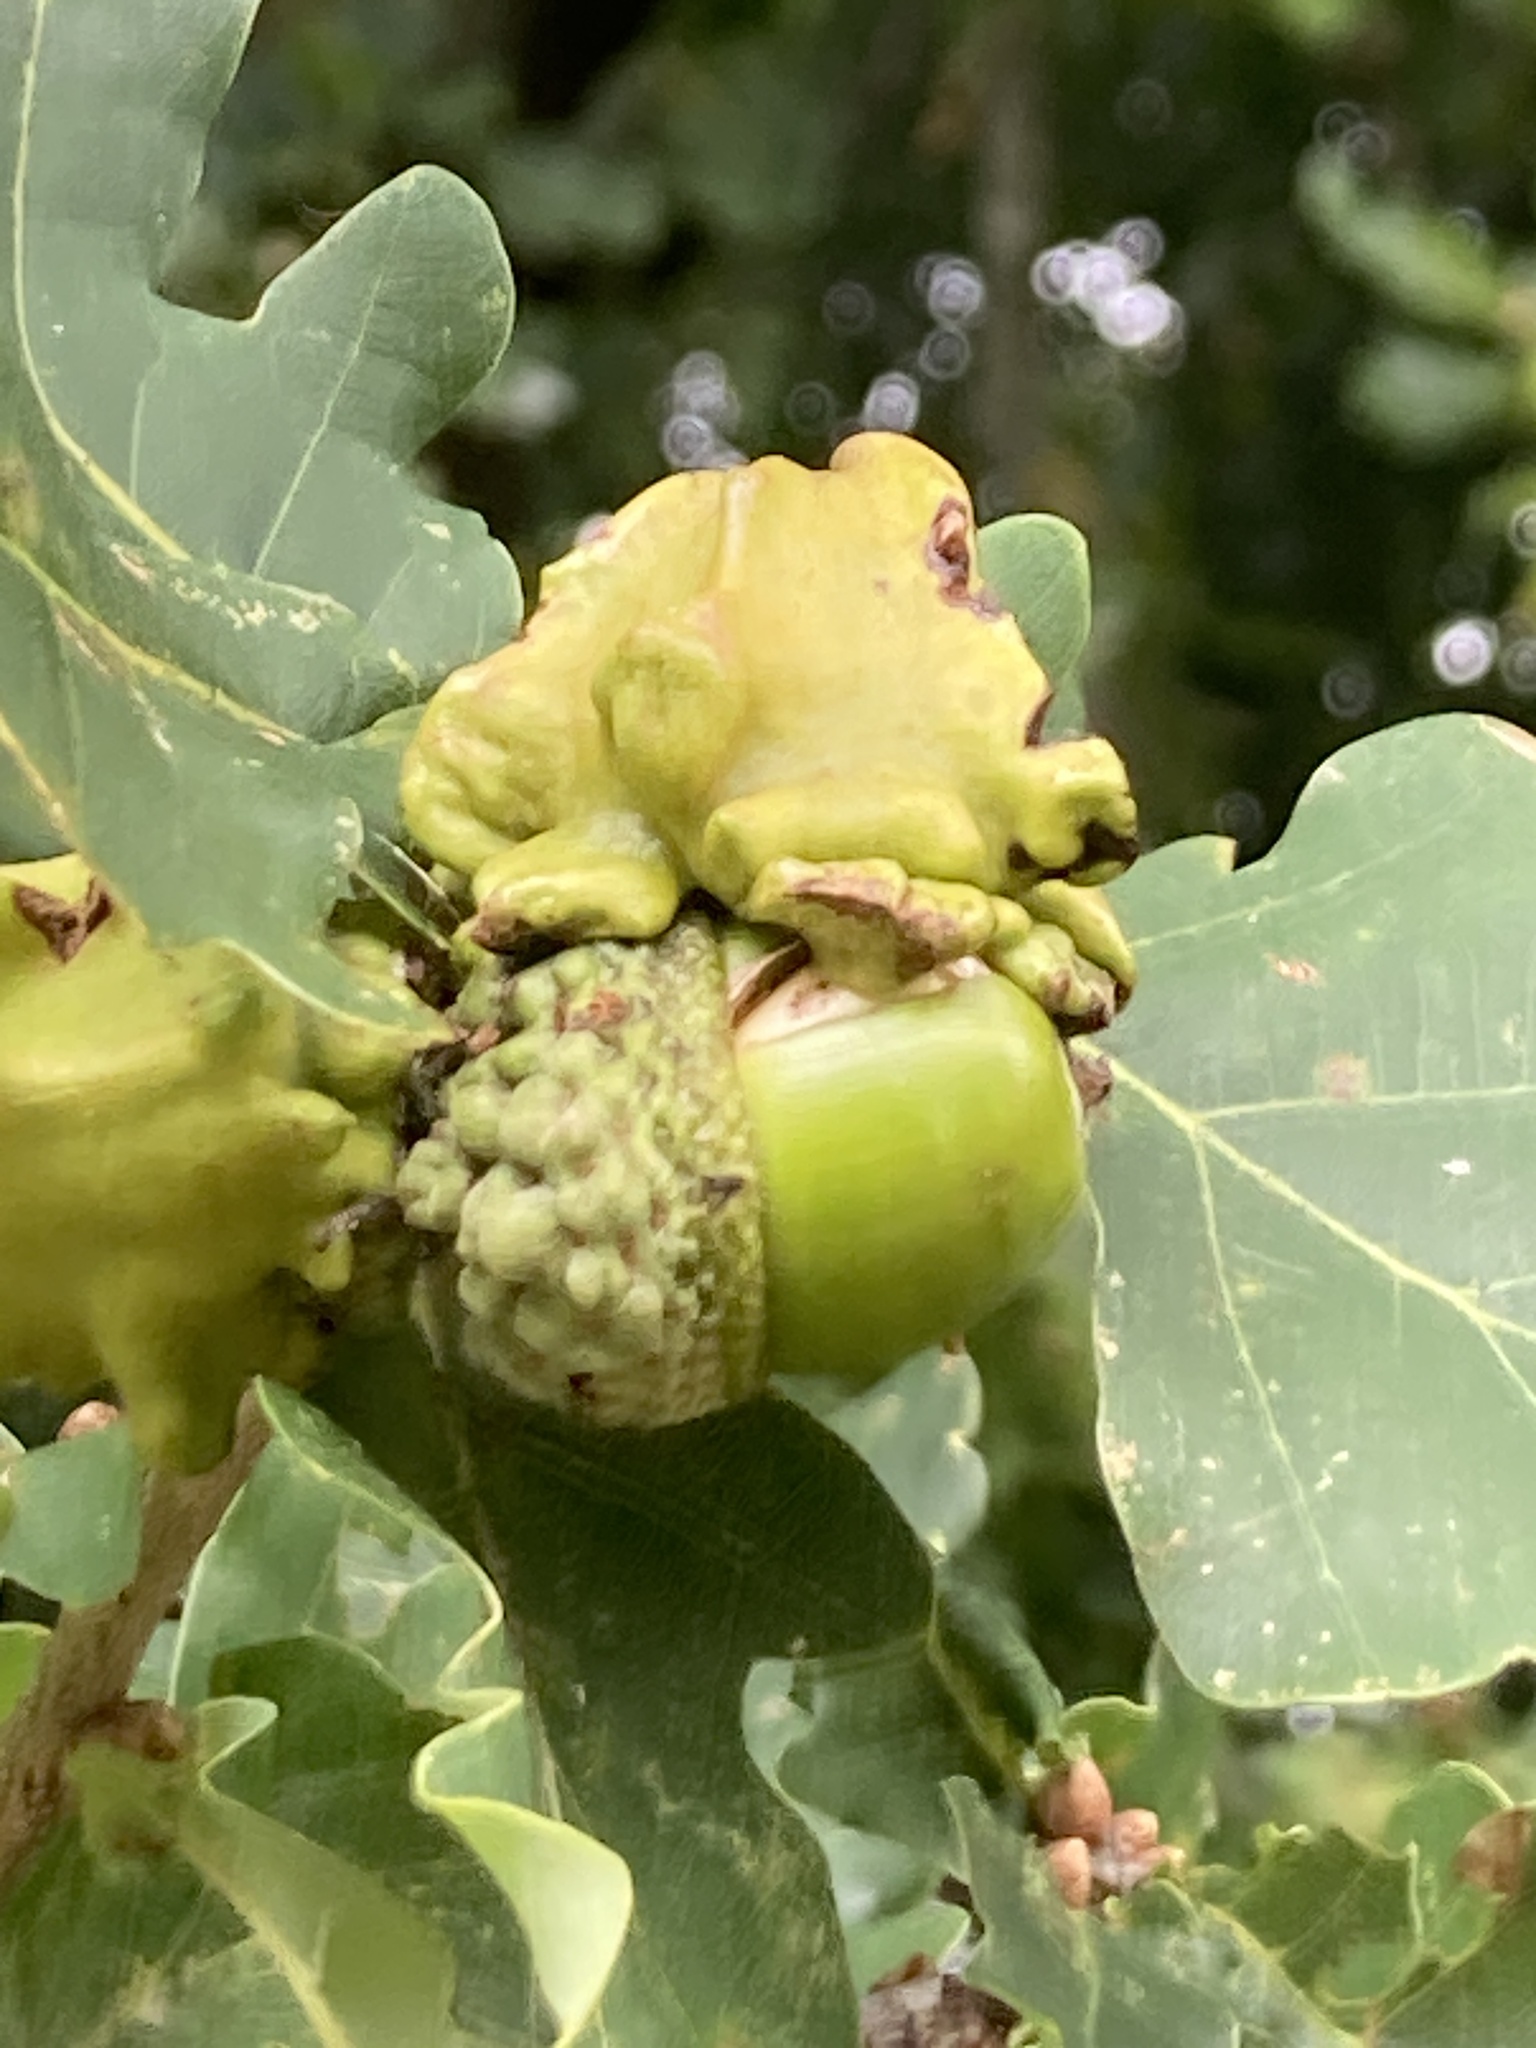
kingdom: Animalia
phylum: Arthropoda
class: Insecta
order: Hymenoptera
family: Cynipidae
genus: Andricus
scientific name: Andricus quercuscalicis
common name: Knopper gall
